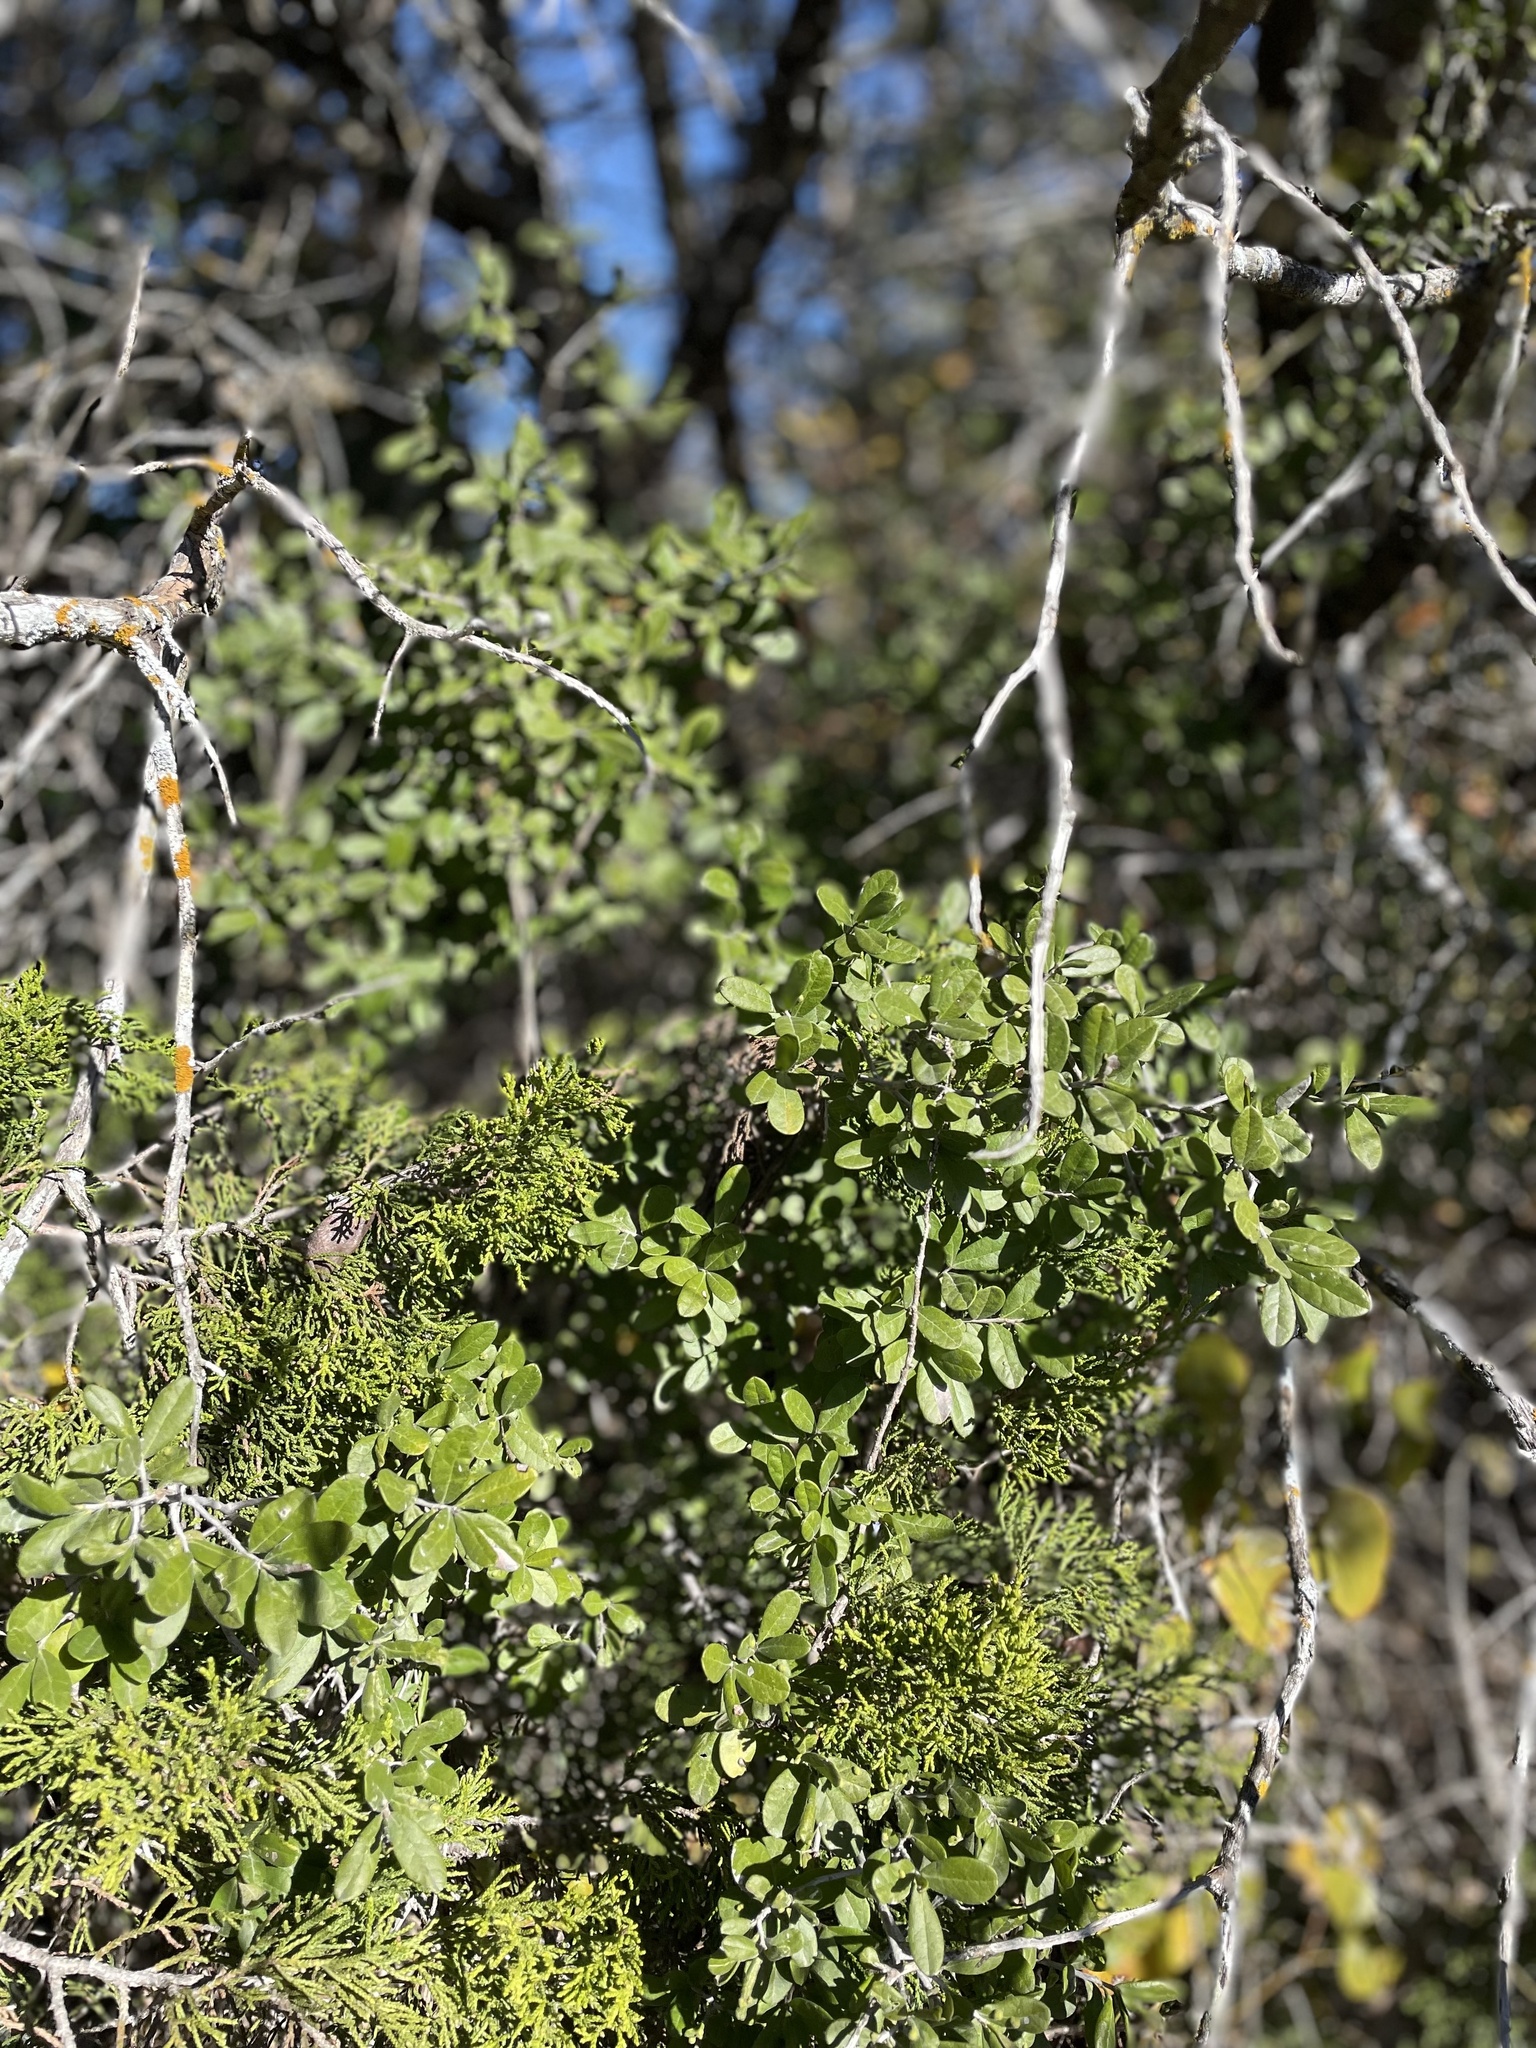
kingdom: Plantae
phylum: Tracheophyta
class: Magnoliopsida
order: Ericales
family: Ebenaceae
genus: Diospyros
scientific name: Diospyros texana
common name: Texas persimmon
